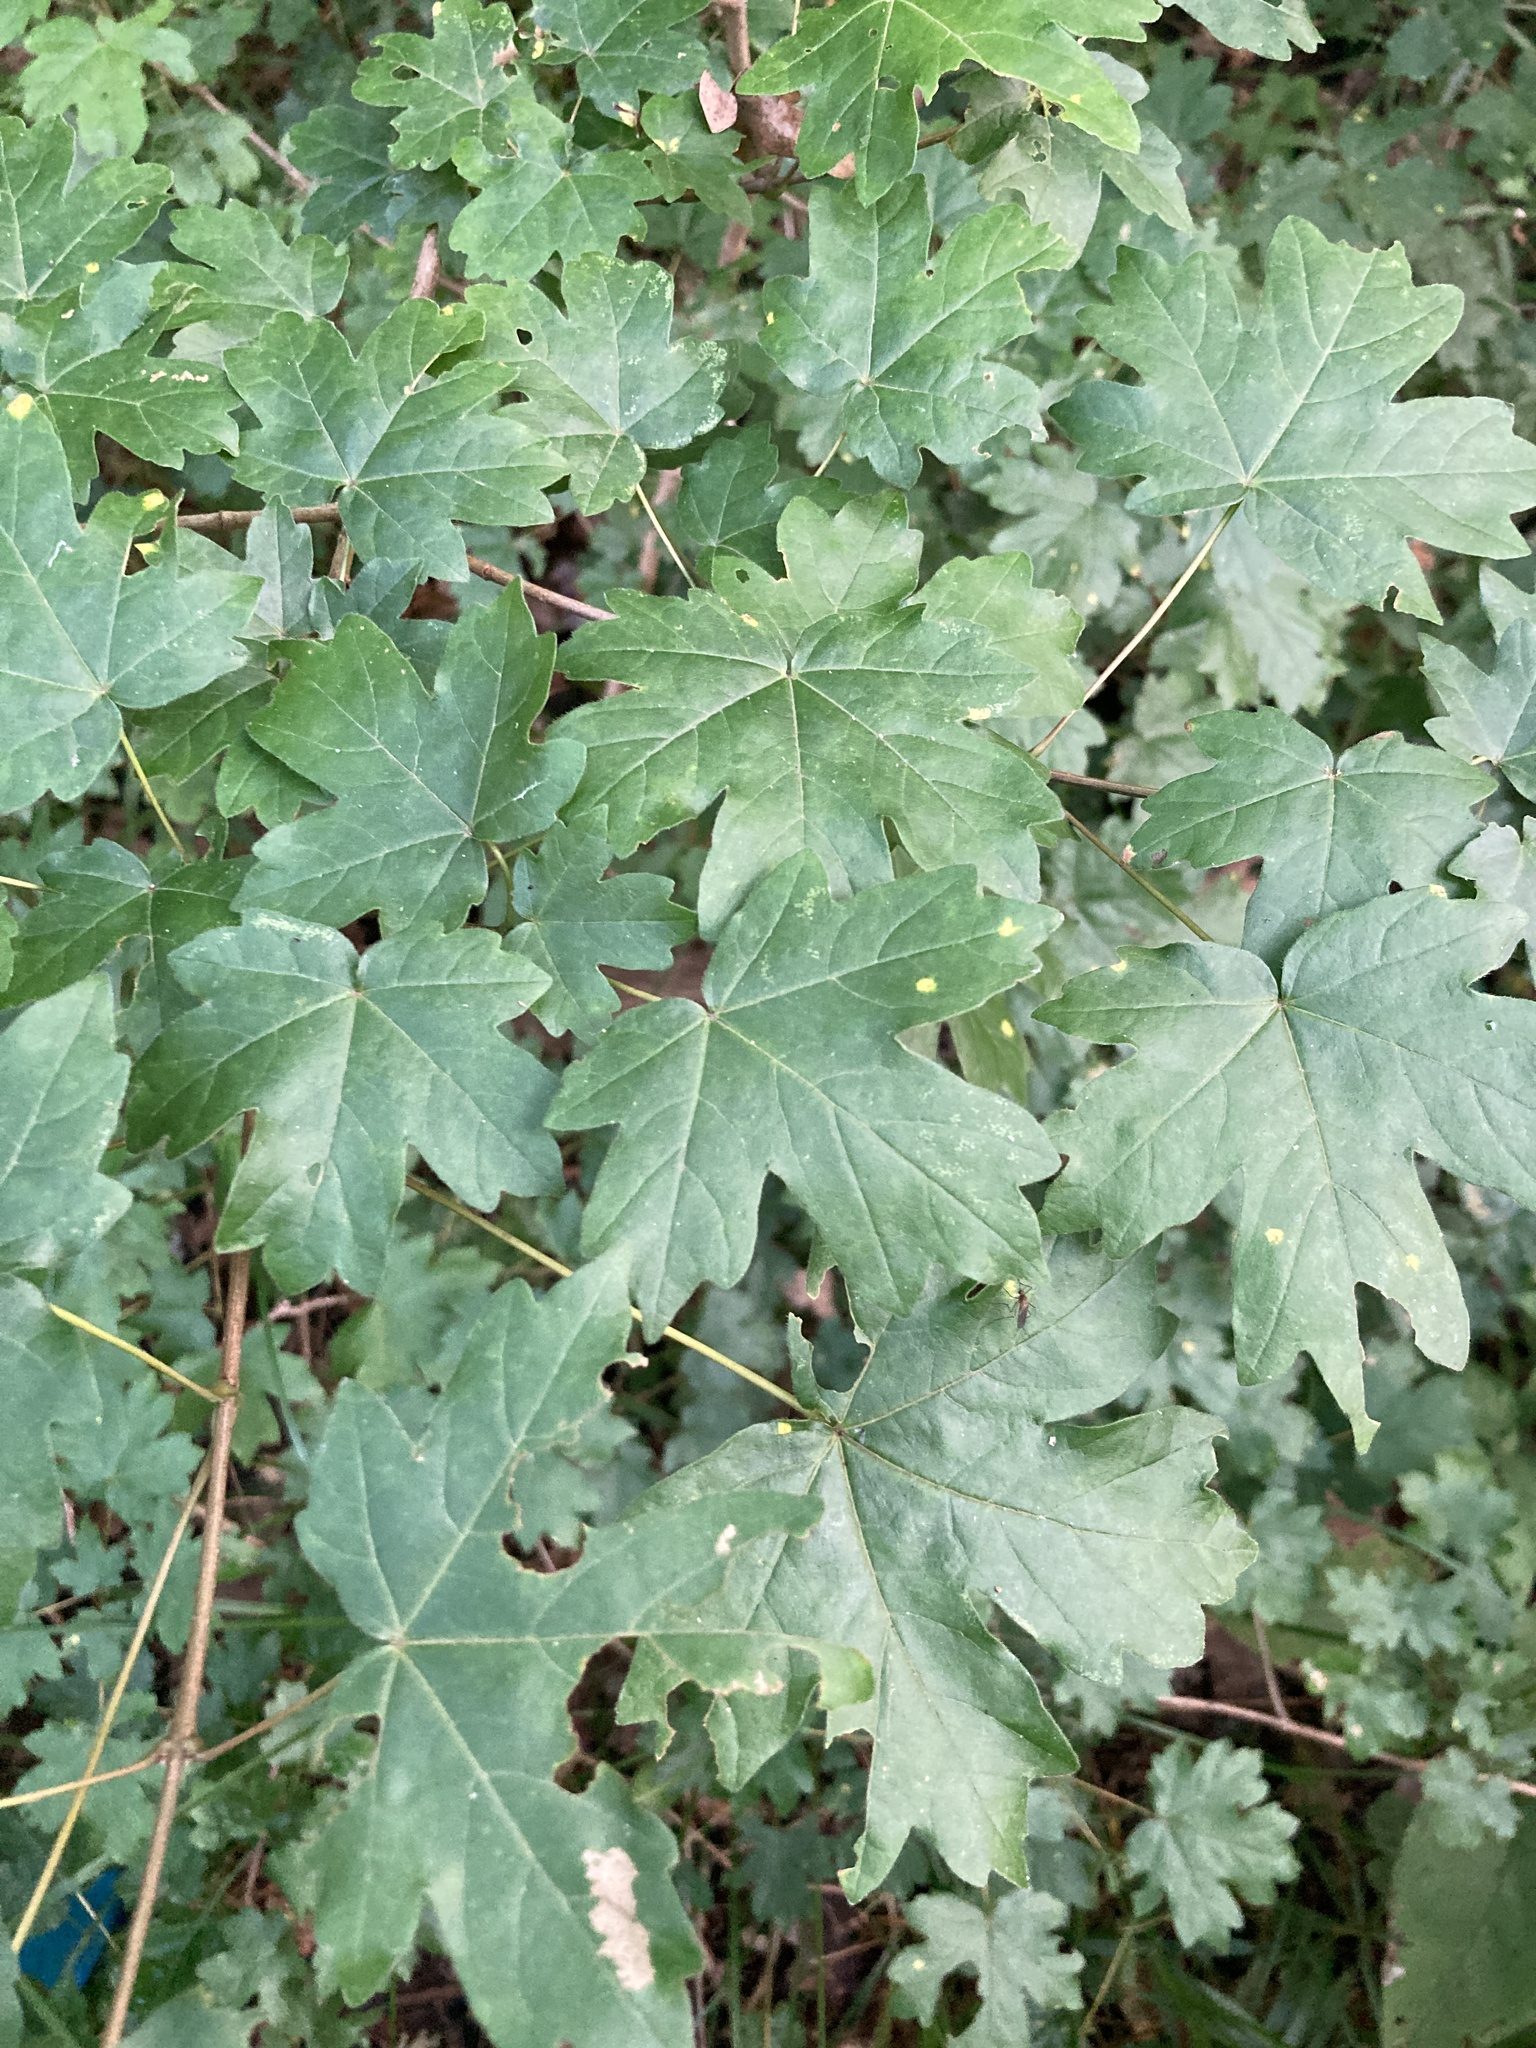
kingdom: Plantae
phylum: Tracheophyta
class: Magnoliopsida
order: Sapindales
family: Sapindaceae
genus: Acer
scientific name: Acer campestre
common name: Field maple
